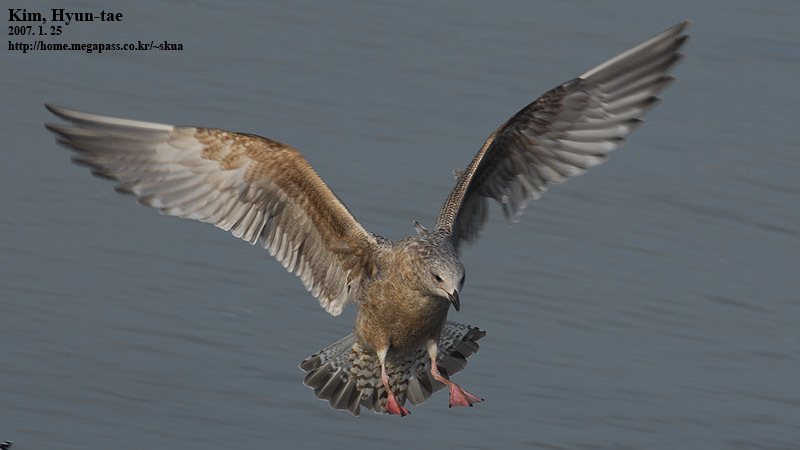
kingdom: Animalia
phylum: Chordata
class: Aves
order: Charadriiformes
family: Laridae
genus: Larus
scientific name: Larus schistisagus
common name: Slaty-backed gull
